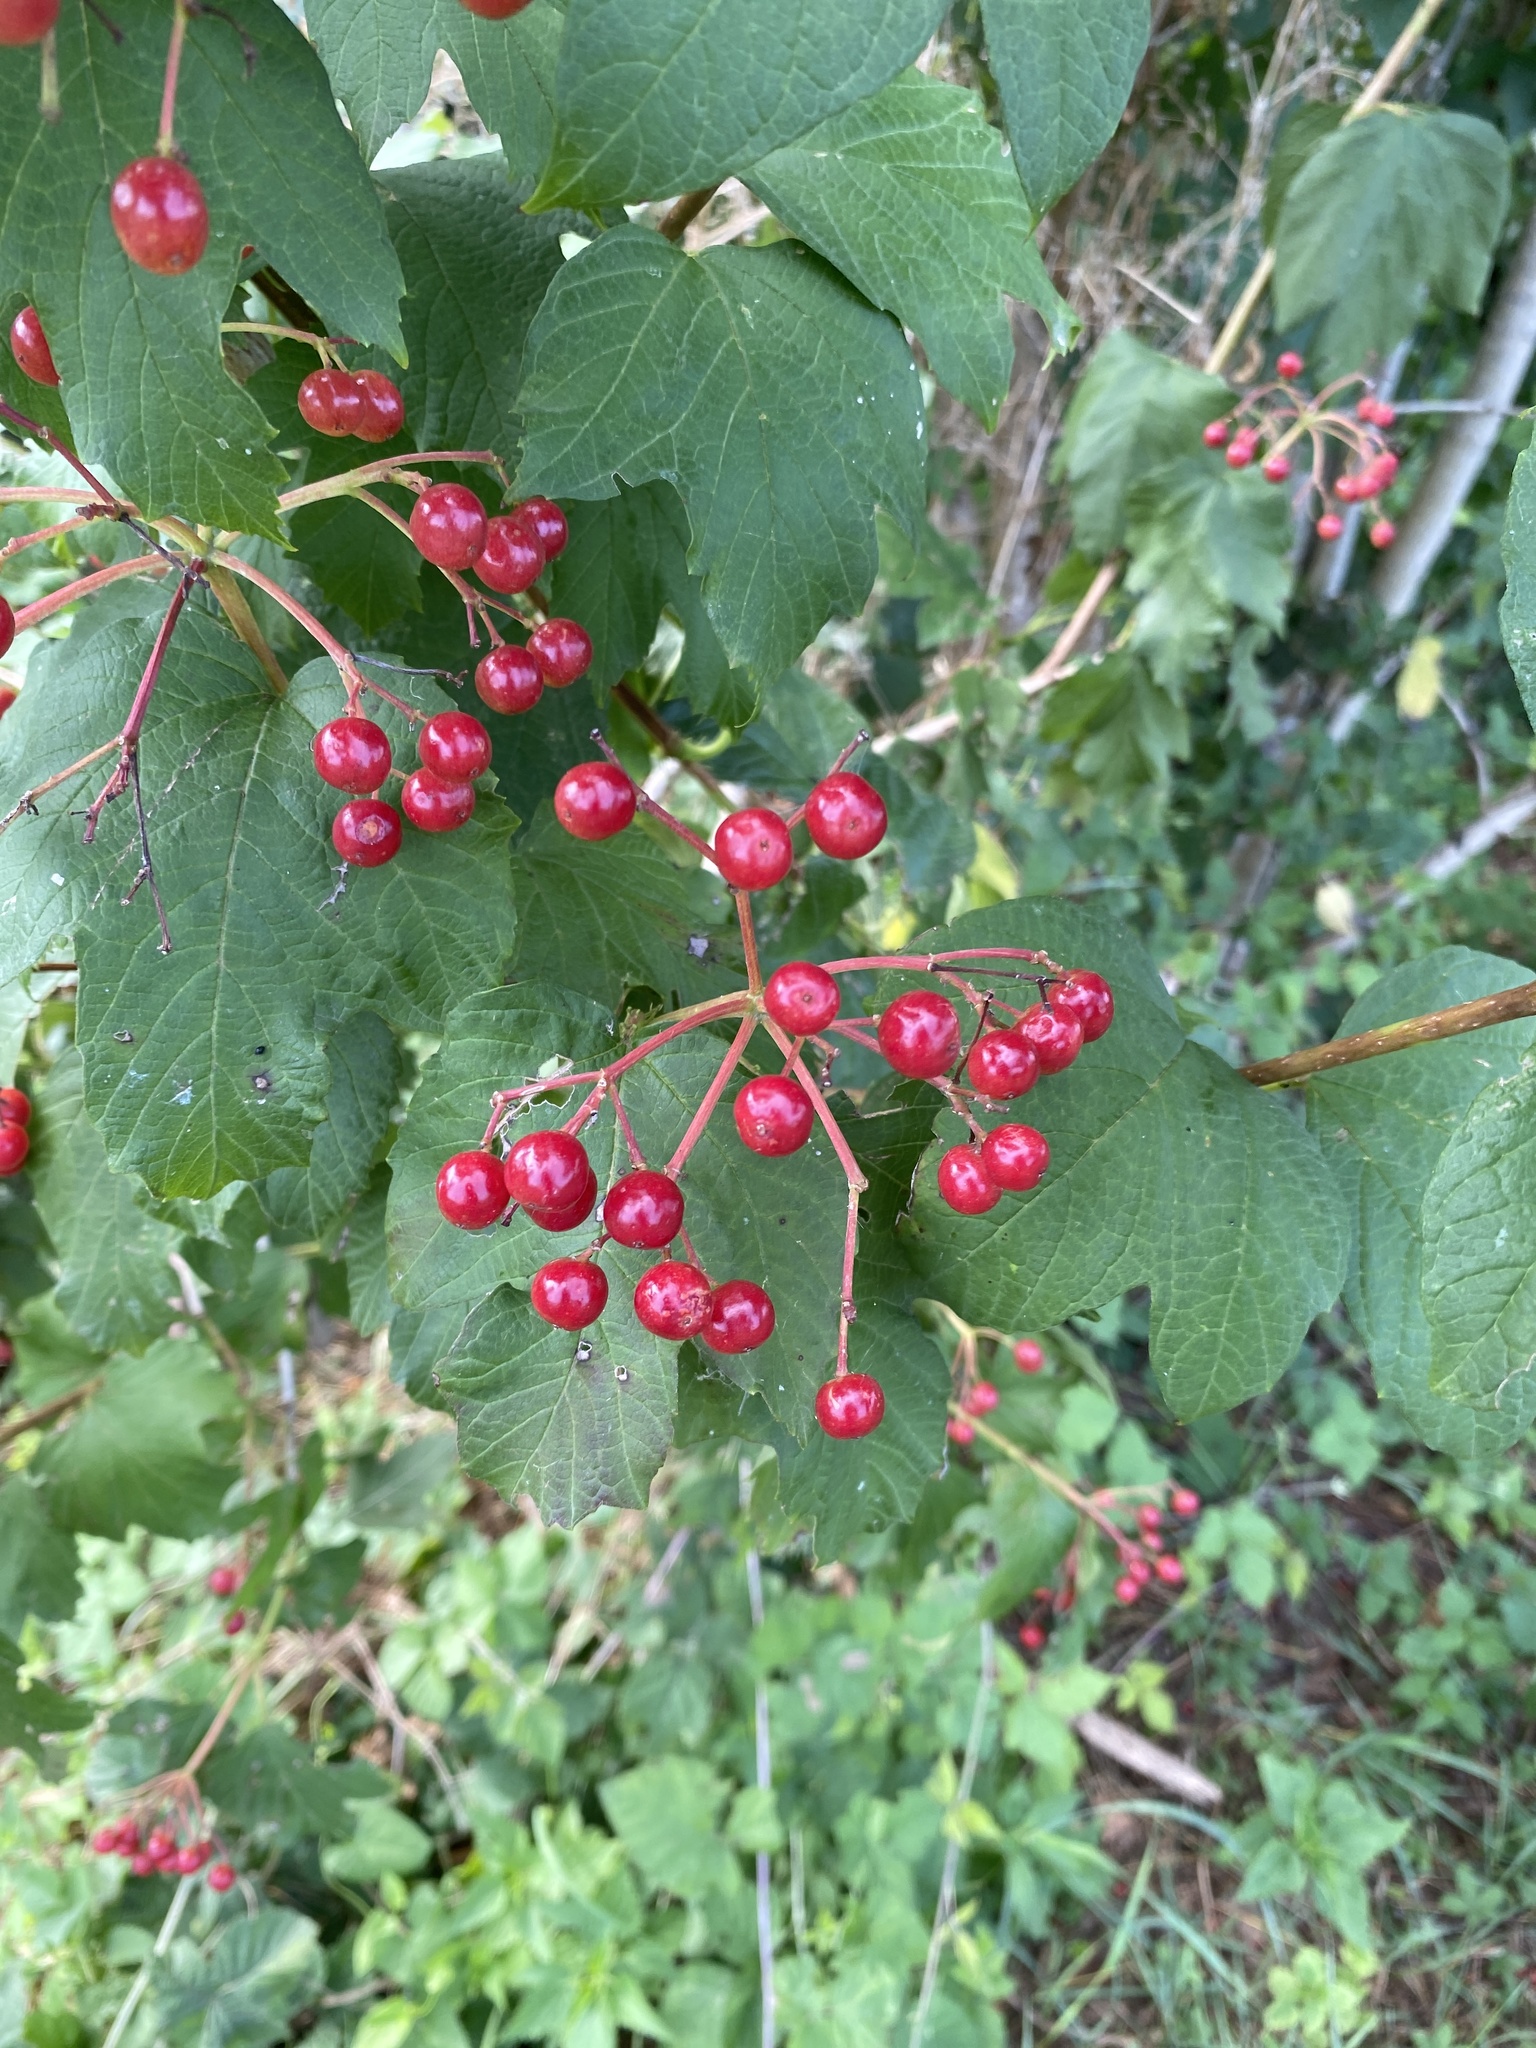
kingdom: Plantae
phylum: Tracheophyta
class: Magnoliopsida
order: Dipsacales
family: Viburnaceae
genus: Viburnum
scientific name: Viburnum opulus
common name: Guelder-rose
